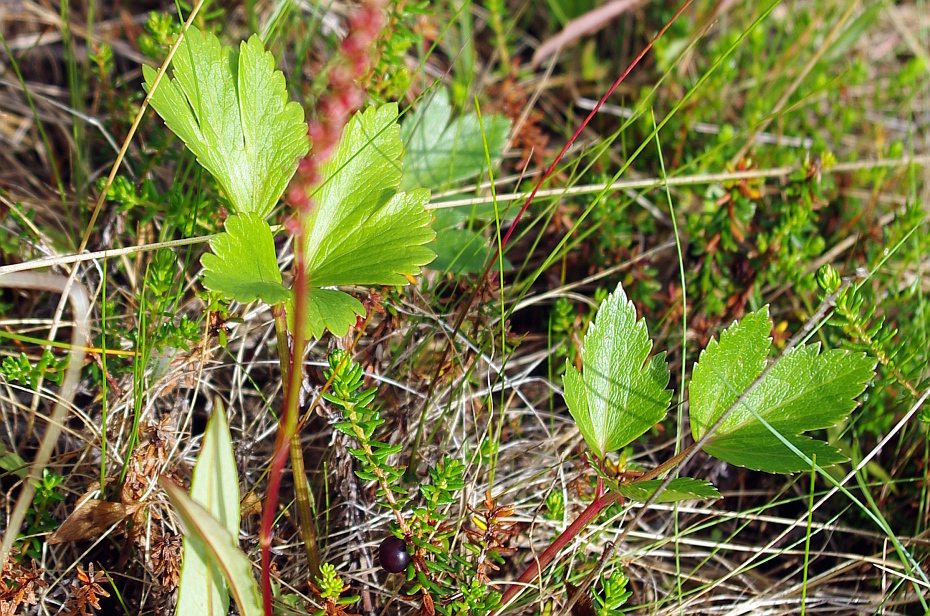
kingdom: Plantae
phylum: Tracheophyta
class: Magnoliopsida
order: Apiales
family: Apiaceae
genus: Ligusticum
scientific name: Ligusticum scothicum
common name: Beach lovage
